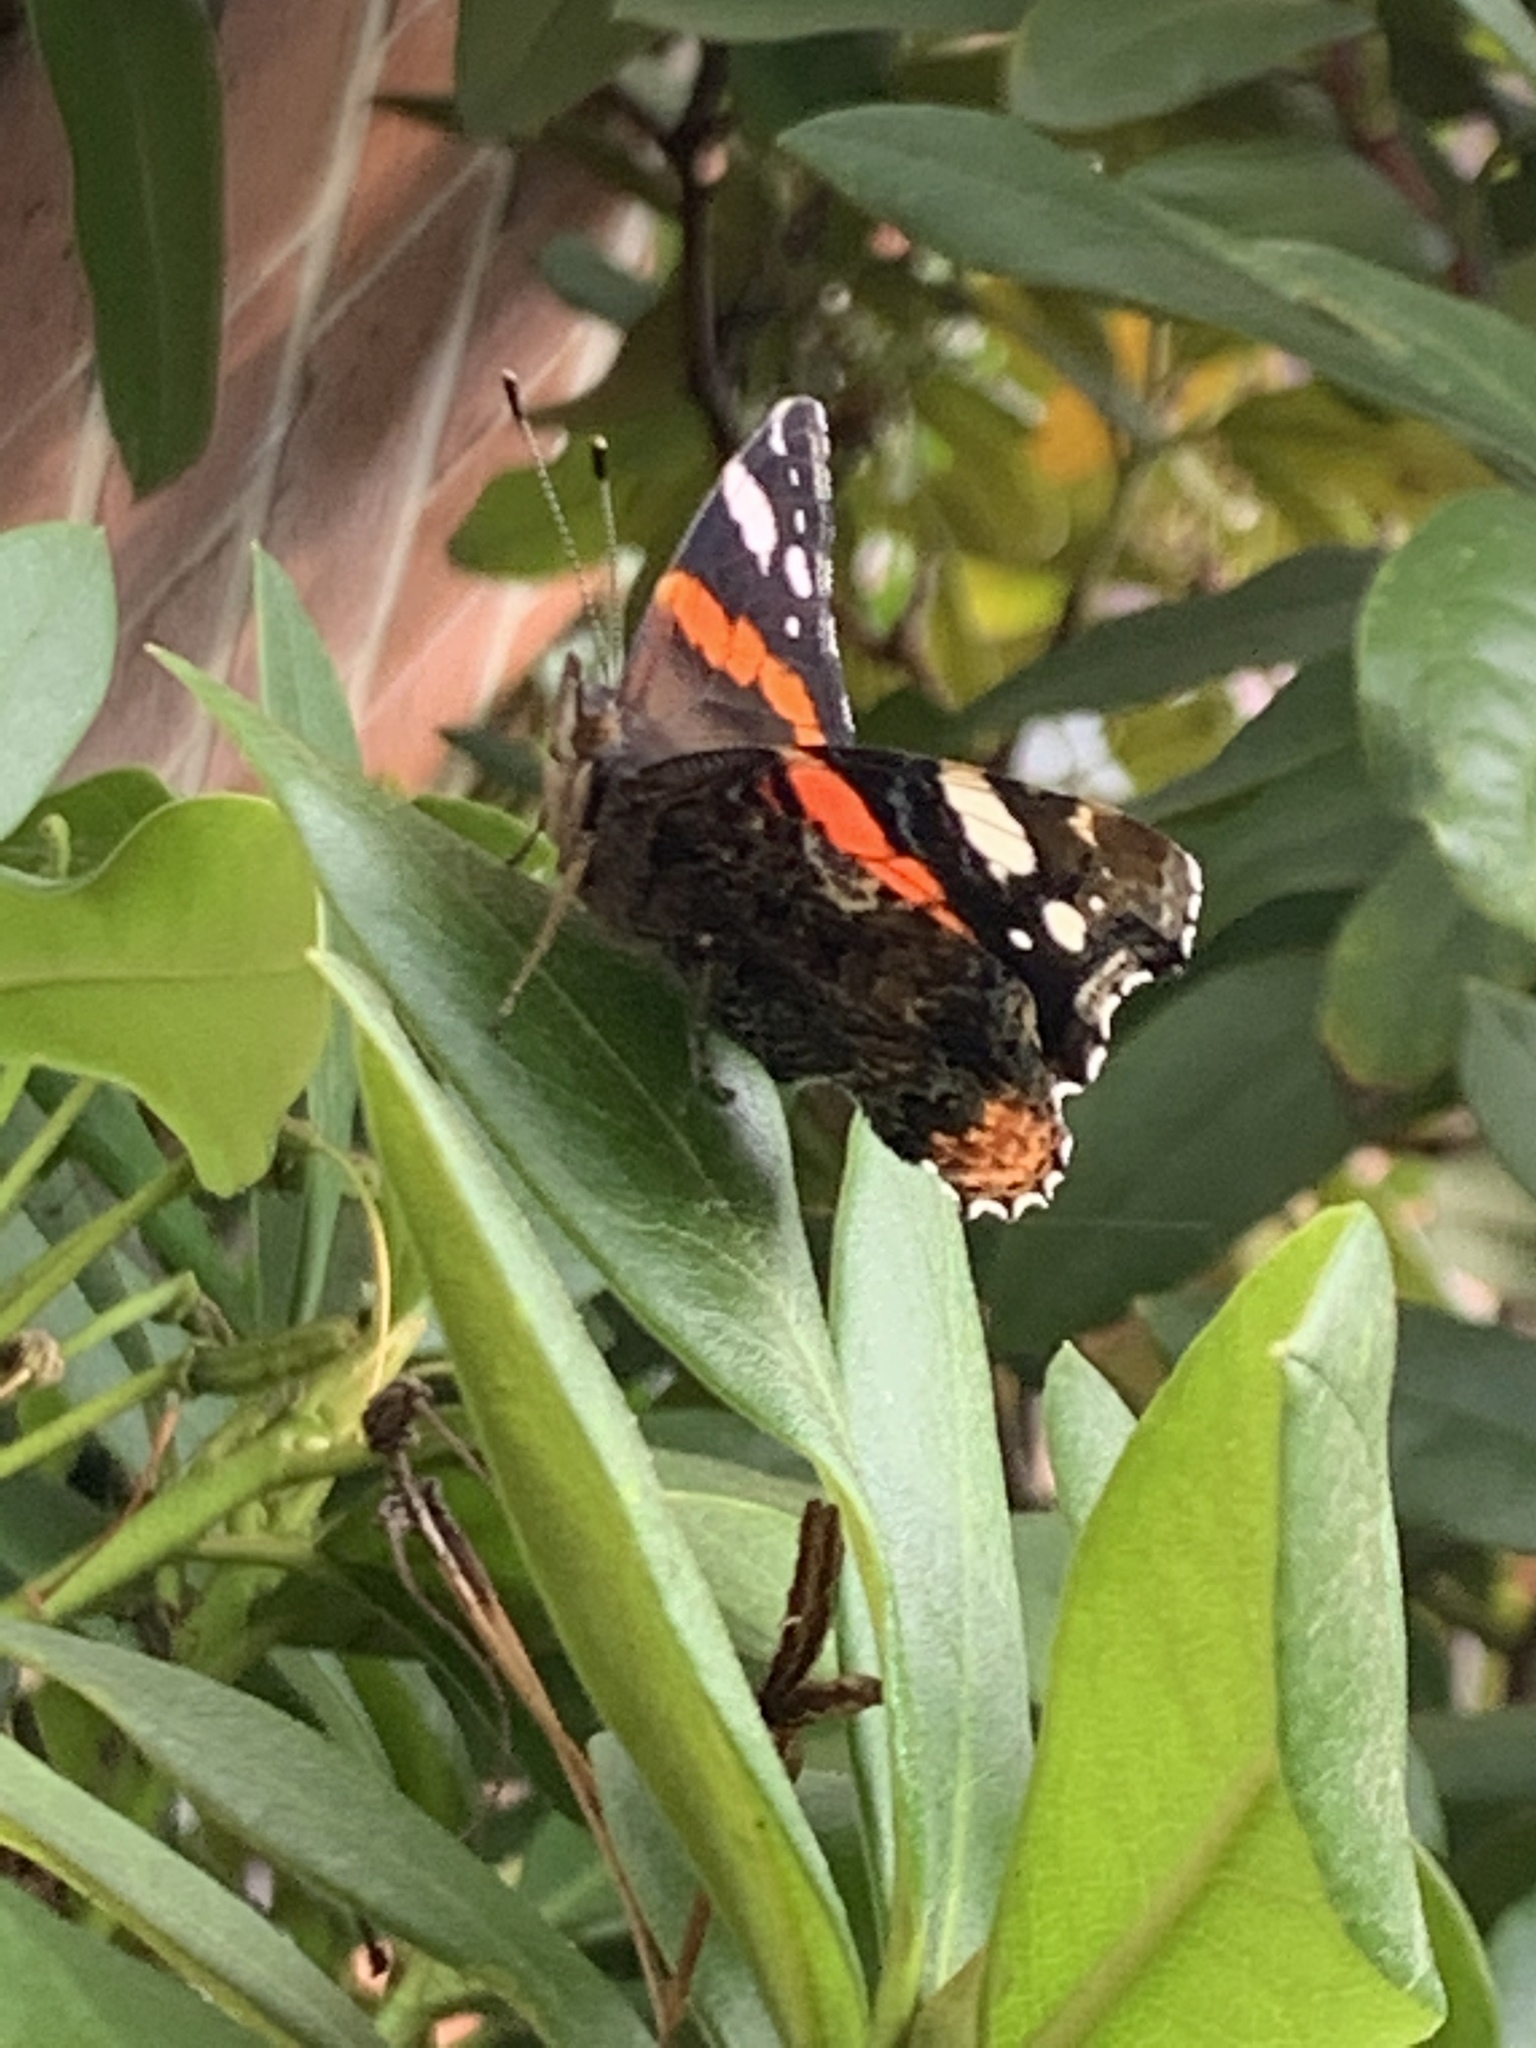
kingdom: Animalia
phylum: Arthropoda
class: Insecta
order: Lepidoptera
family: Nymphalidae
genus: Vanessa
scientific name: Vanessa atalanta
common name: Red admiral
